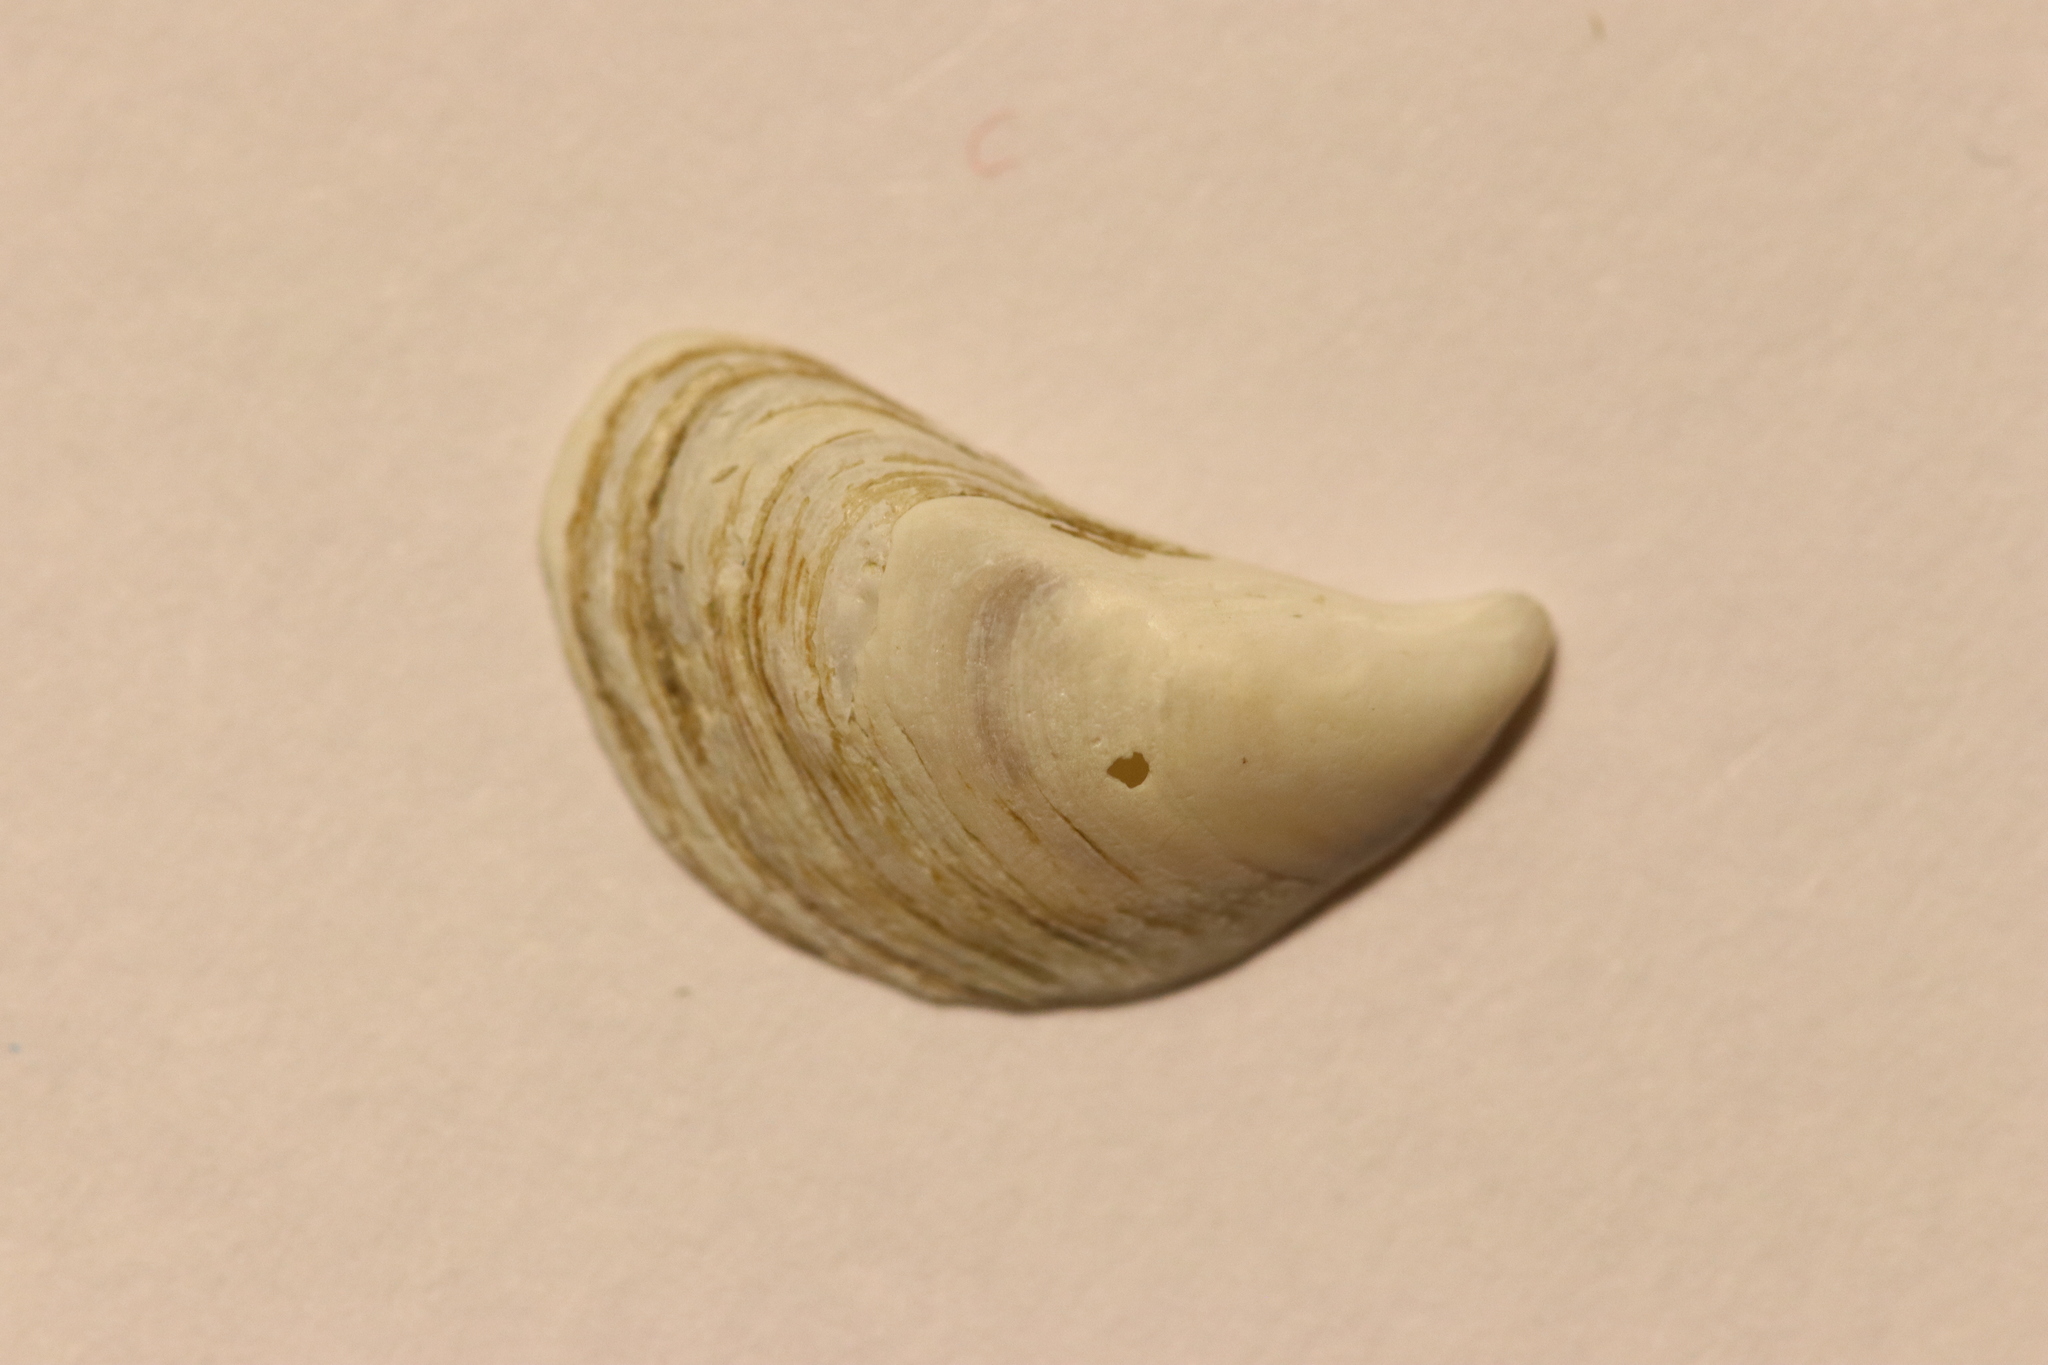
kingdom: Animalia
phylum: Mollusca
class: Bivalvia
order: Myida
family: Dreissenidae
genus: Dreissena
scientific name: Dreissena bugensis
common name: Quagga mussel
